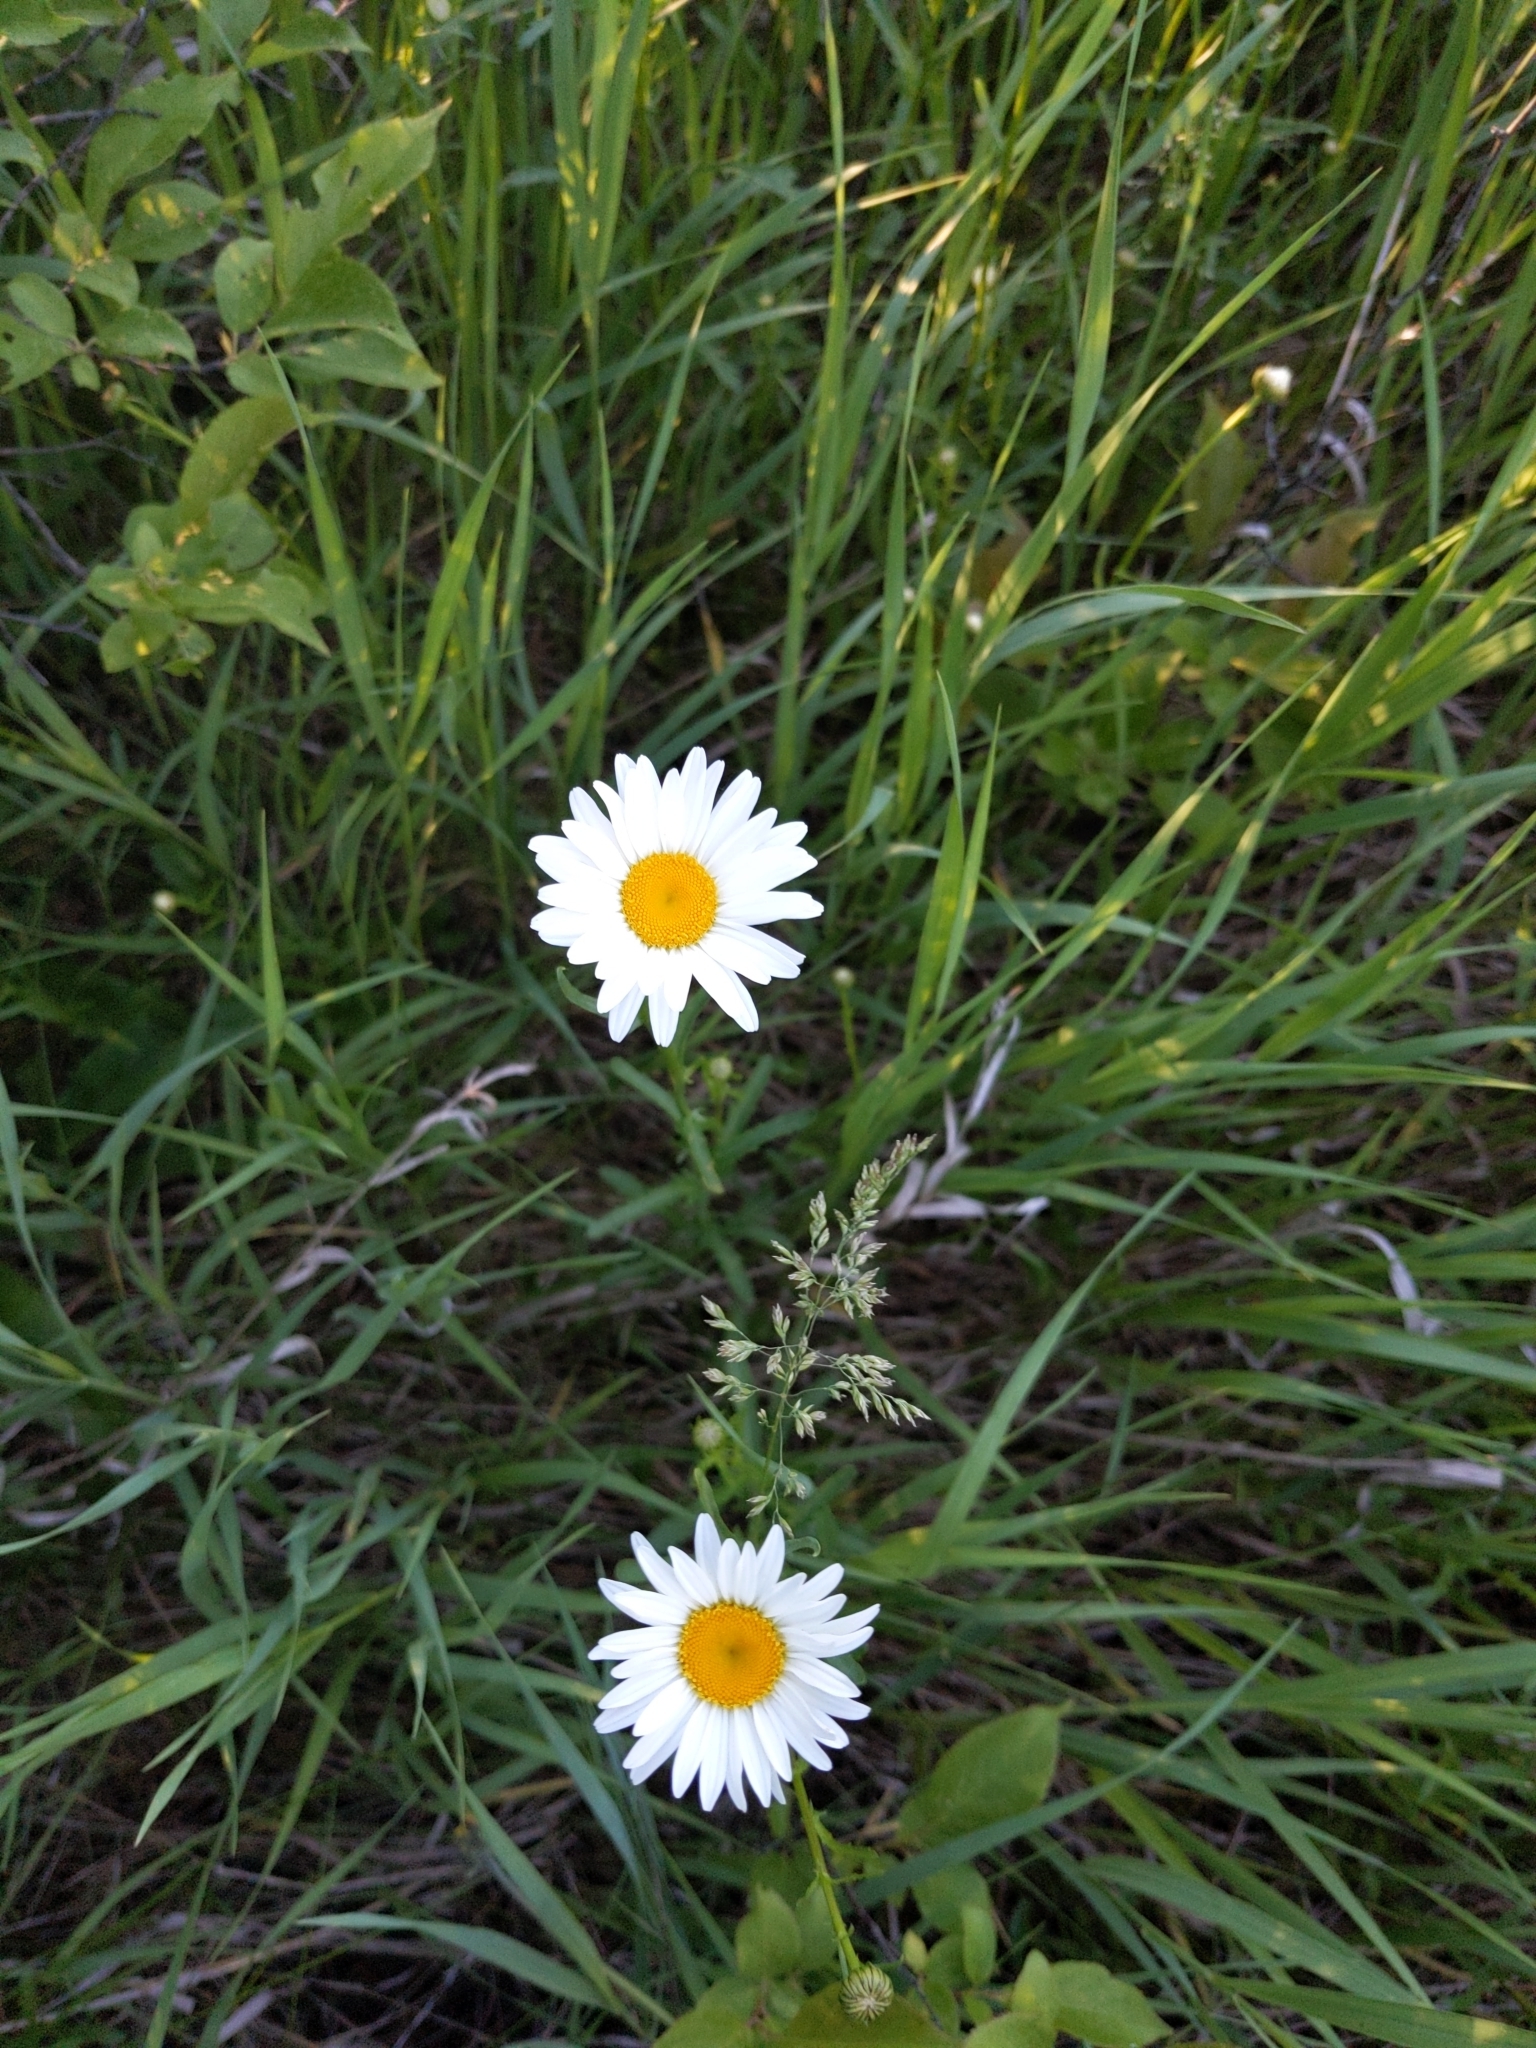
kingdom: Plantae
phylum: Tracheophyta
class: Magnoliopsida
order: Asterales
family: Asteraceae
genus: Leucanthemum
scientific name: Leucanthemum vulgare
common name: Oxeye daisy
